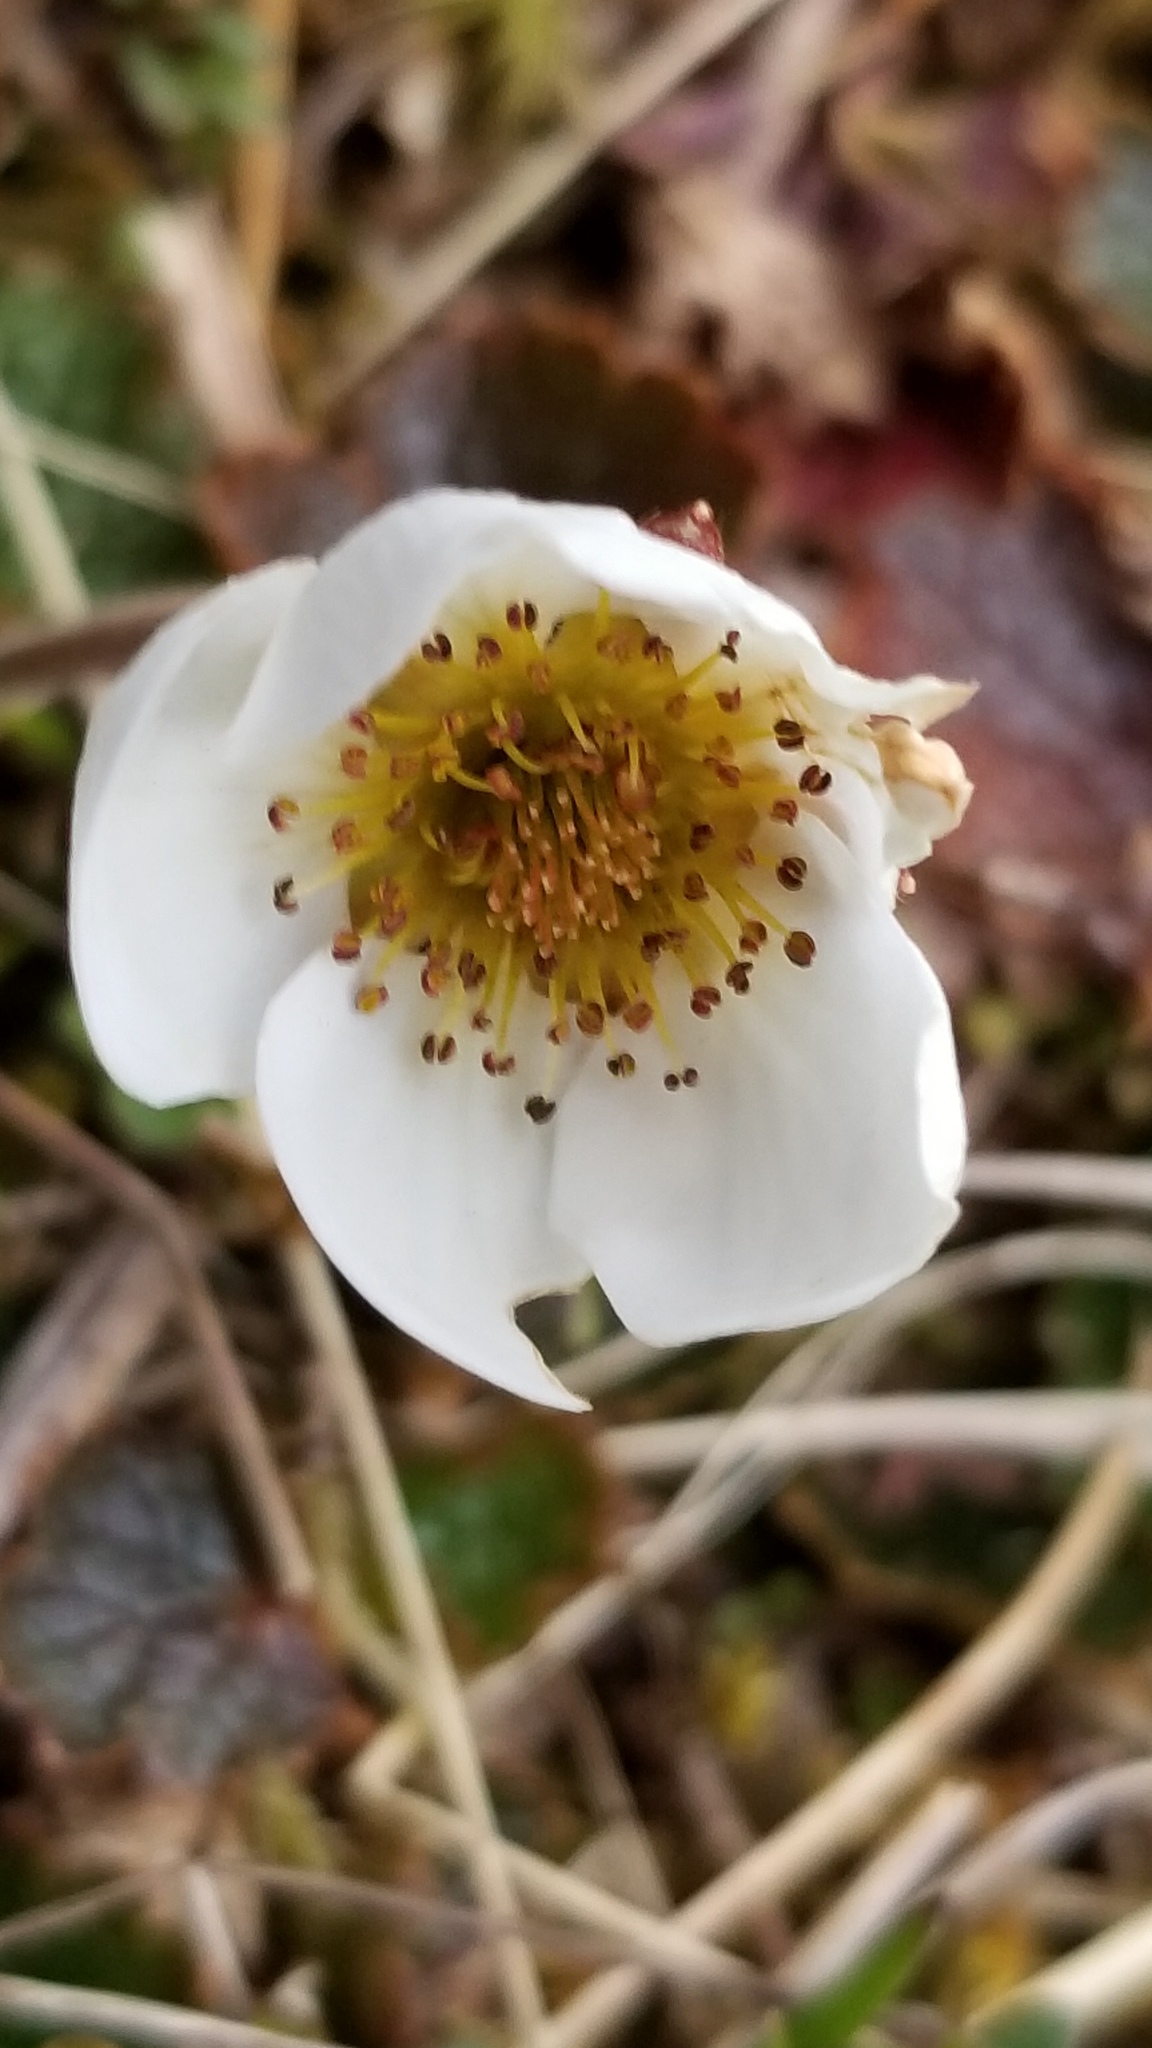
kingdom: Plantae
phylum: Tracheophyta
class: Magnoliopsida
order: Rosales
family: Rosaceae
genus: Geum
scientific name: Geum uniflorum
